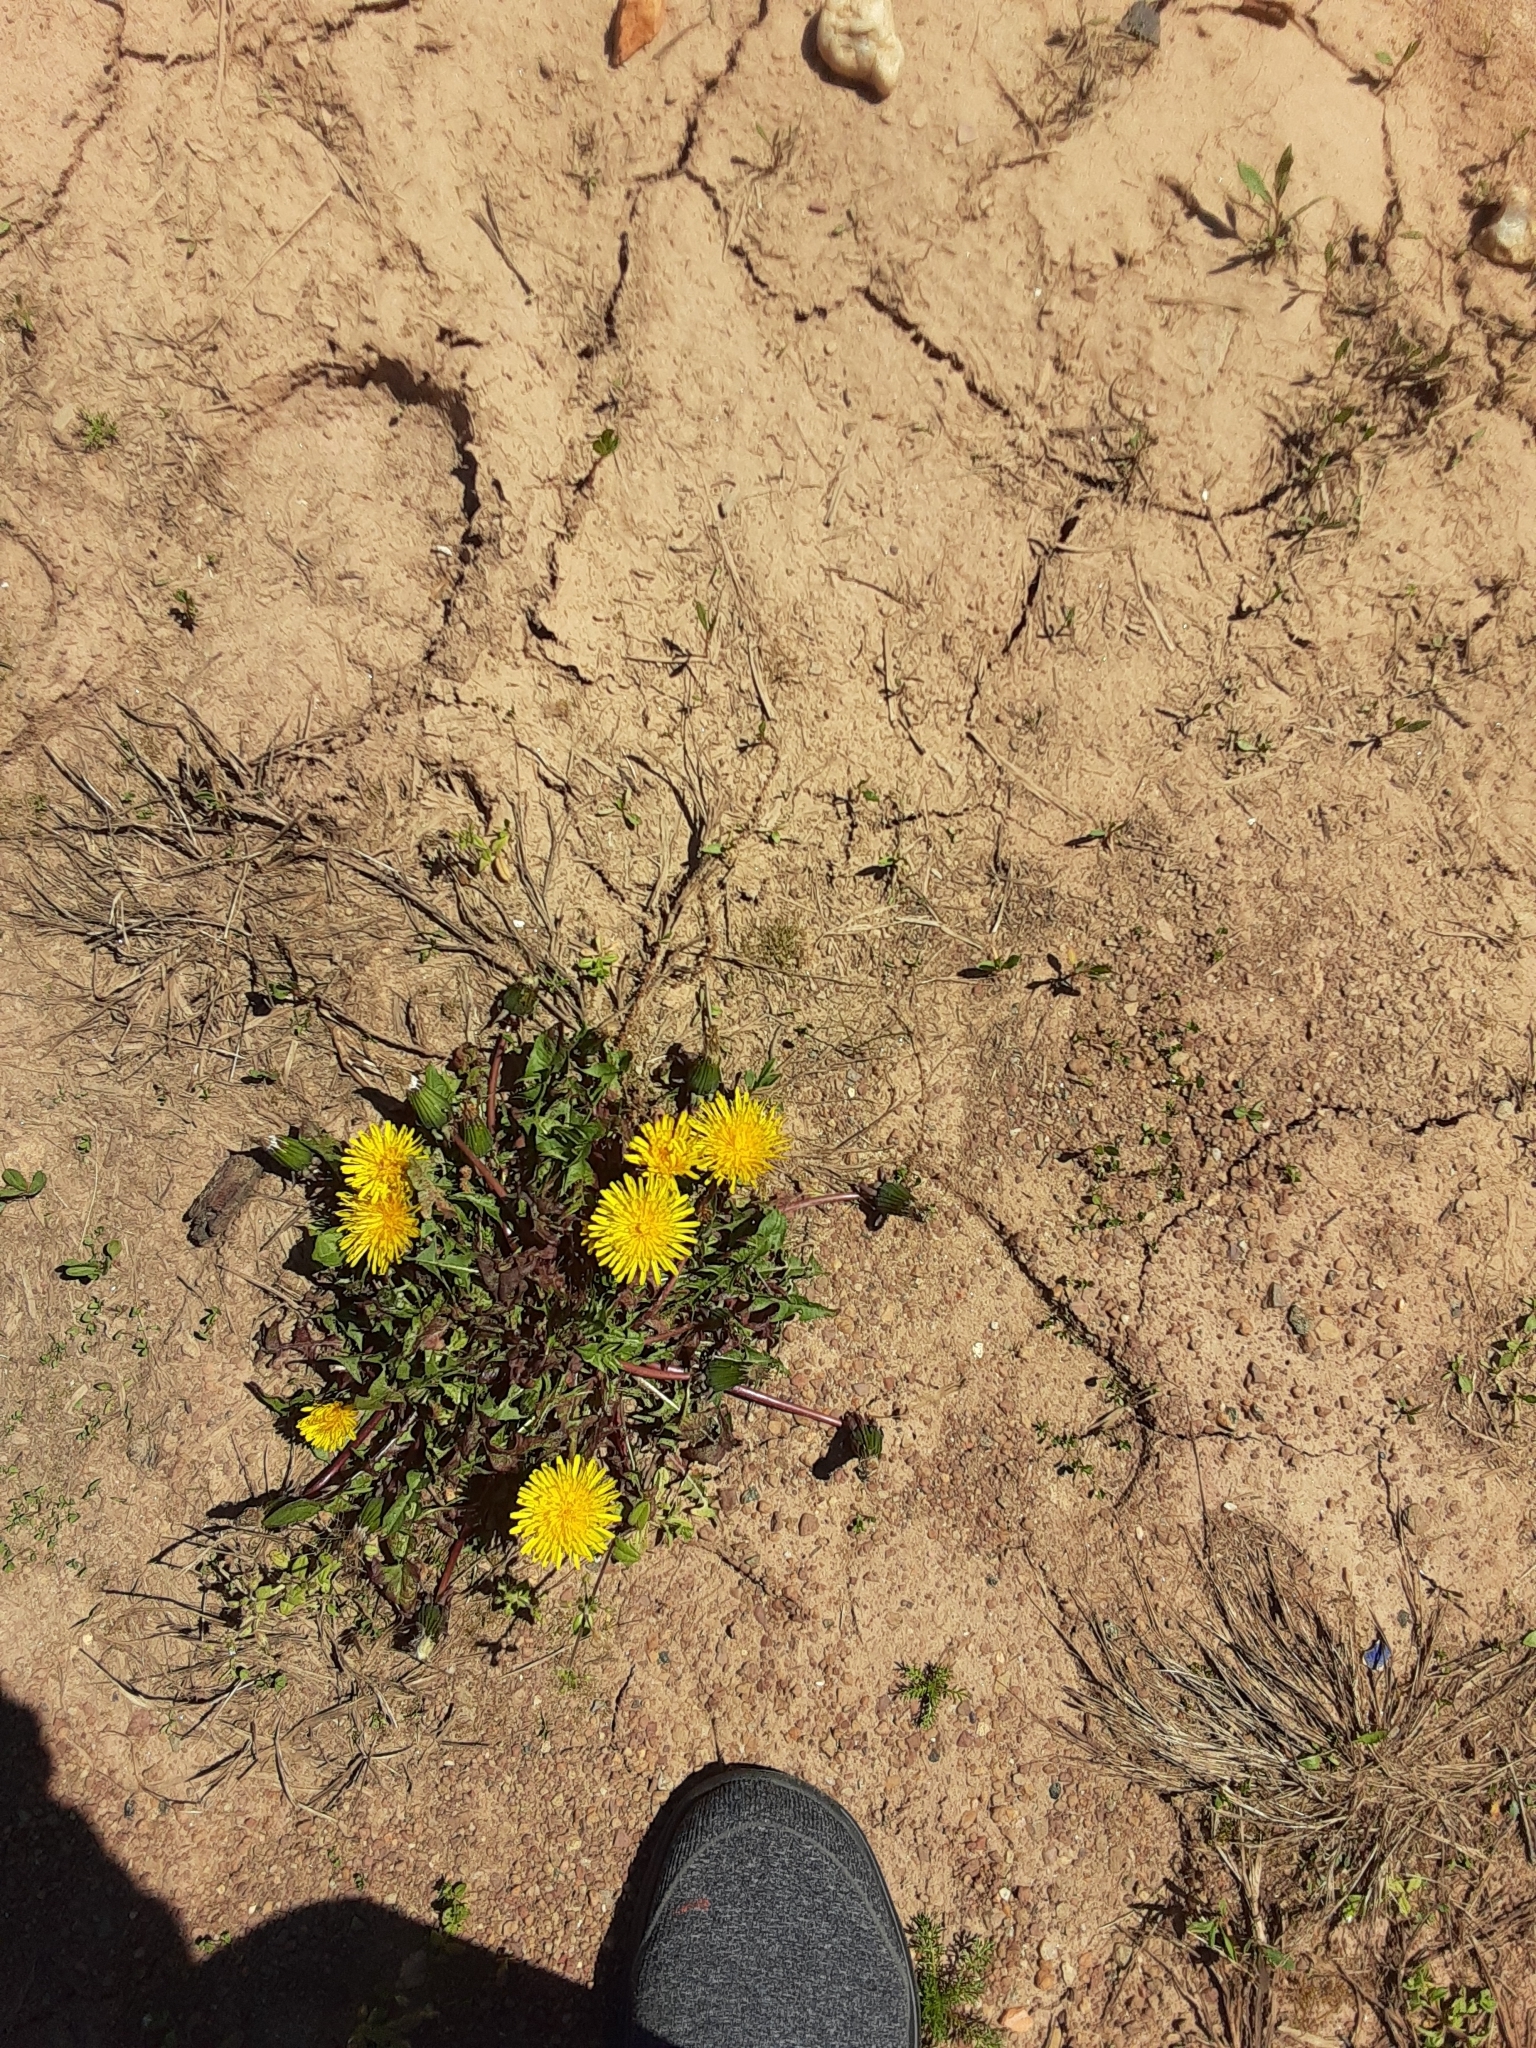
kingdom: Plantae
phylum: Tracheophyta
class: Magnoliopsida
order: Asterales
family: Asteraceae
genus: Taraxacum
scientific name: Taraxacum officinale
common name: Common dandelion
